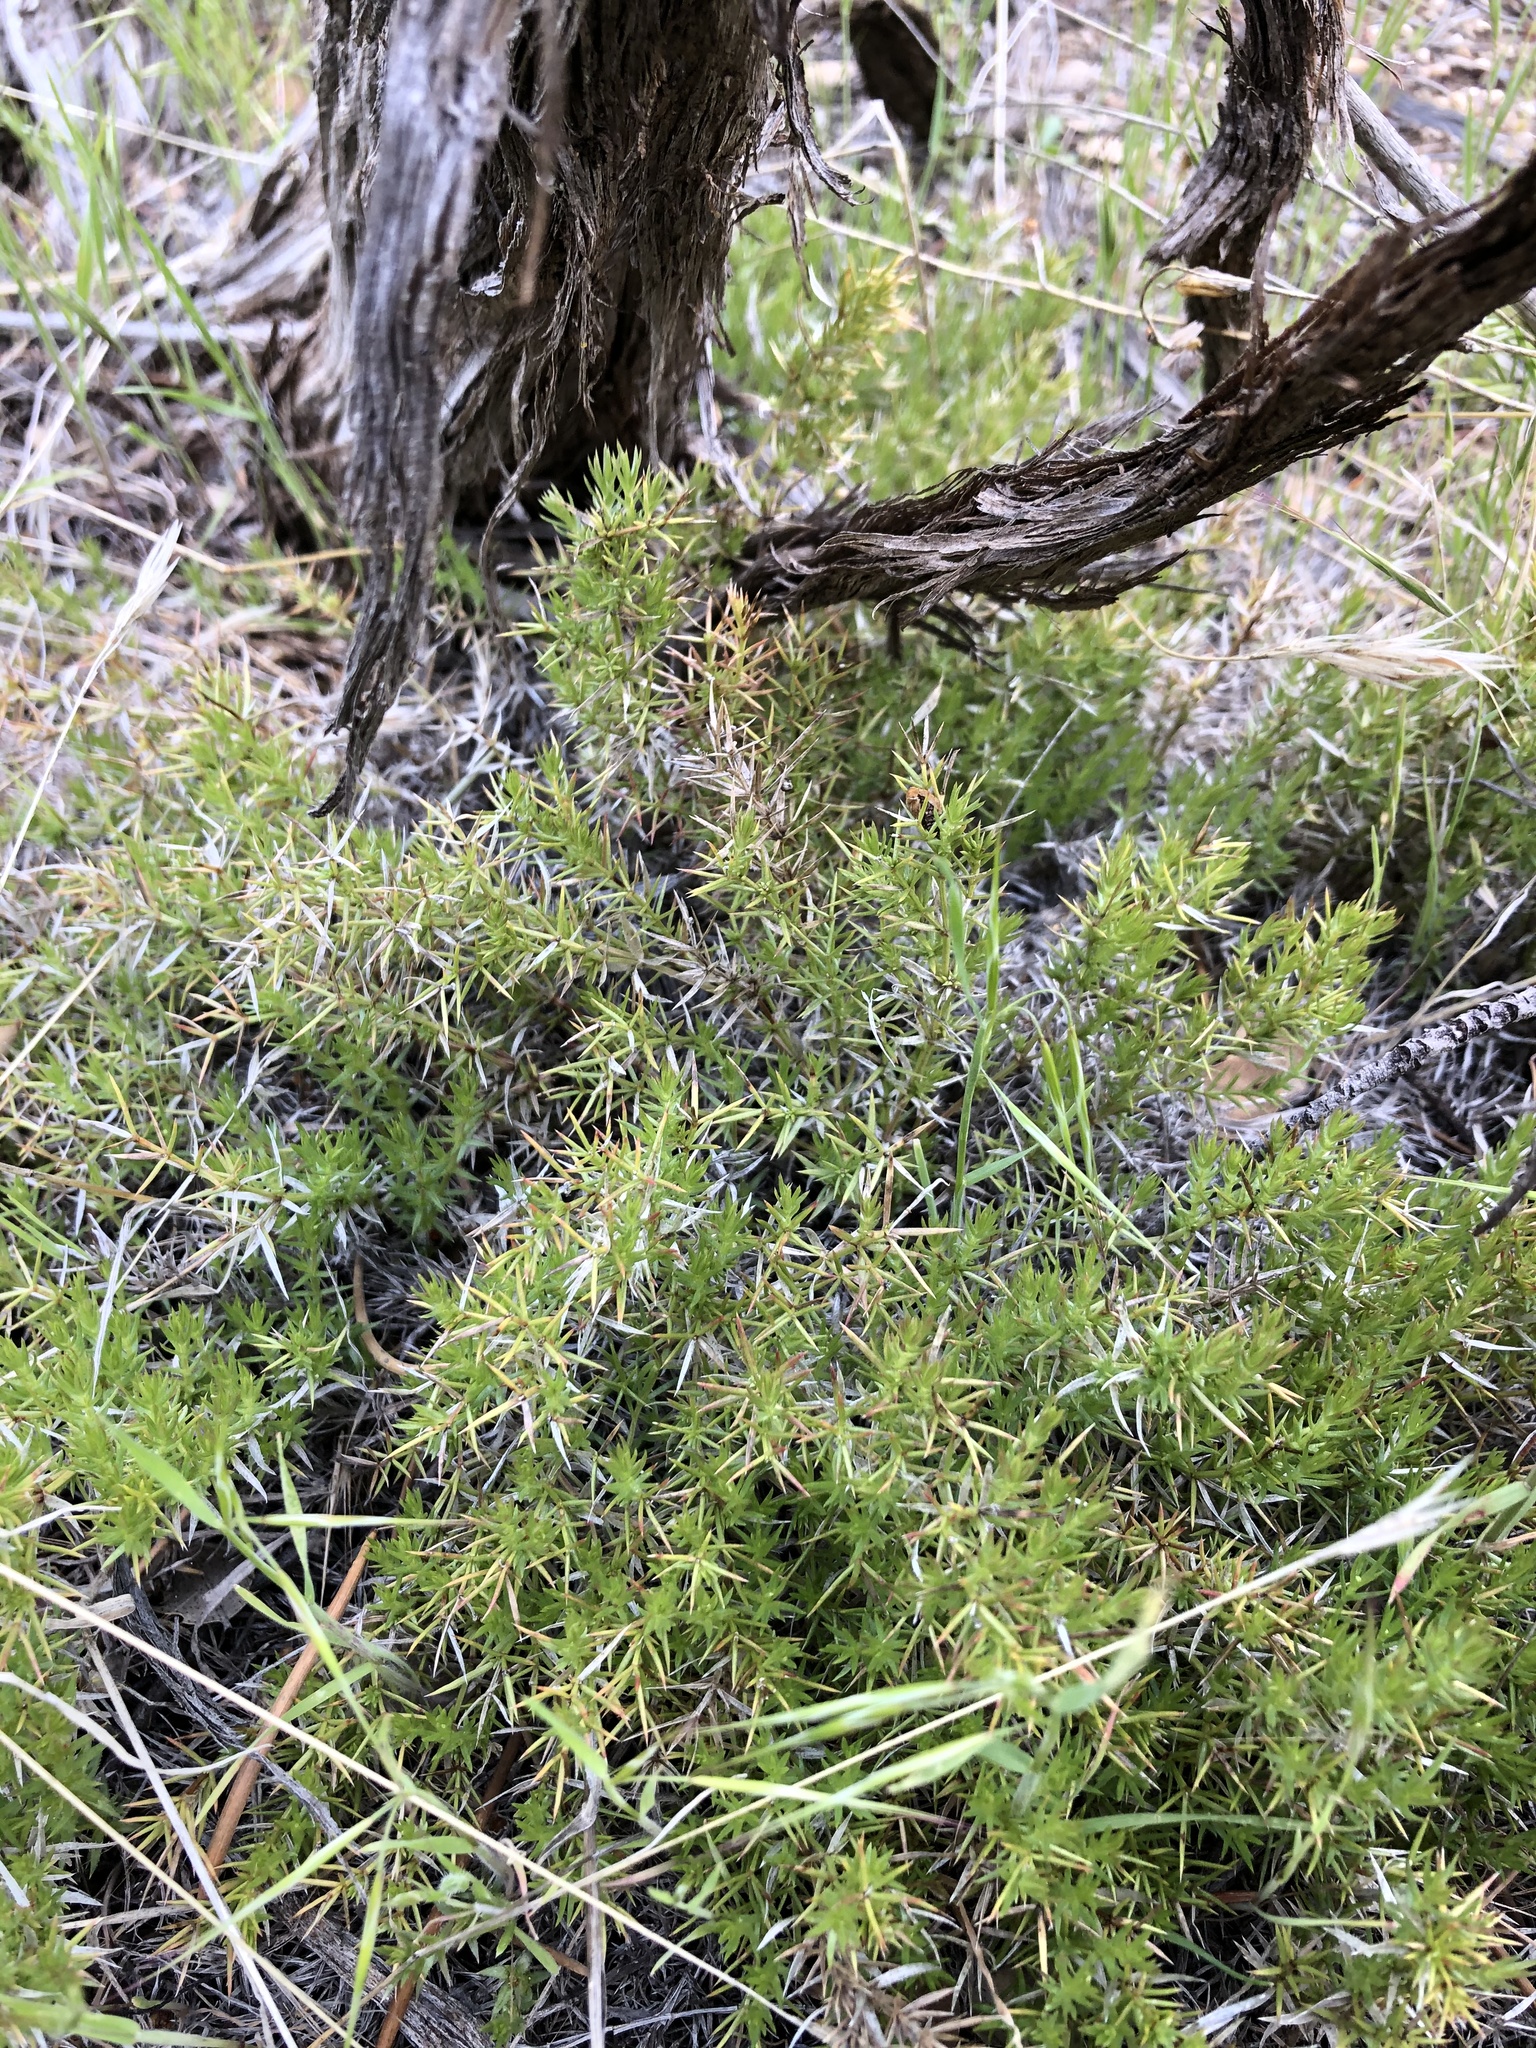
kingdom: Plantae
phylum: Tracheophyta
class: Magnoliopsida
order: Gentianales
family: Rubiaceae
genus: Galium
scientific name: Galium andrewsii
